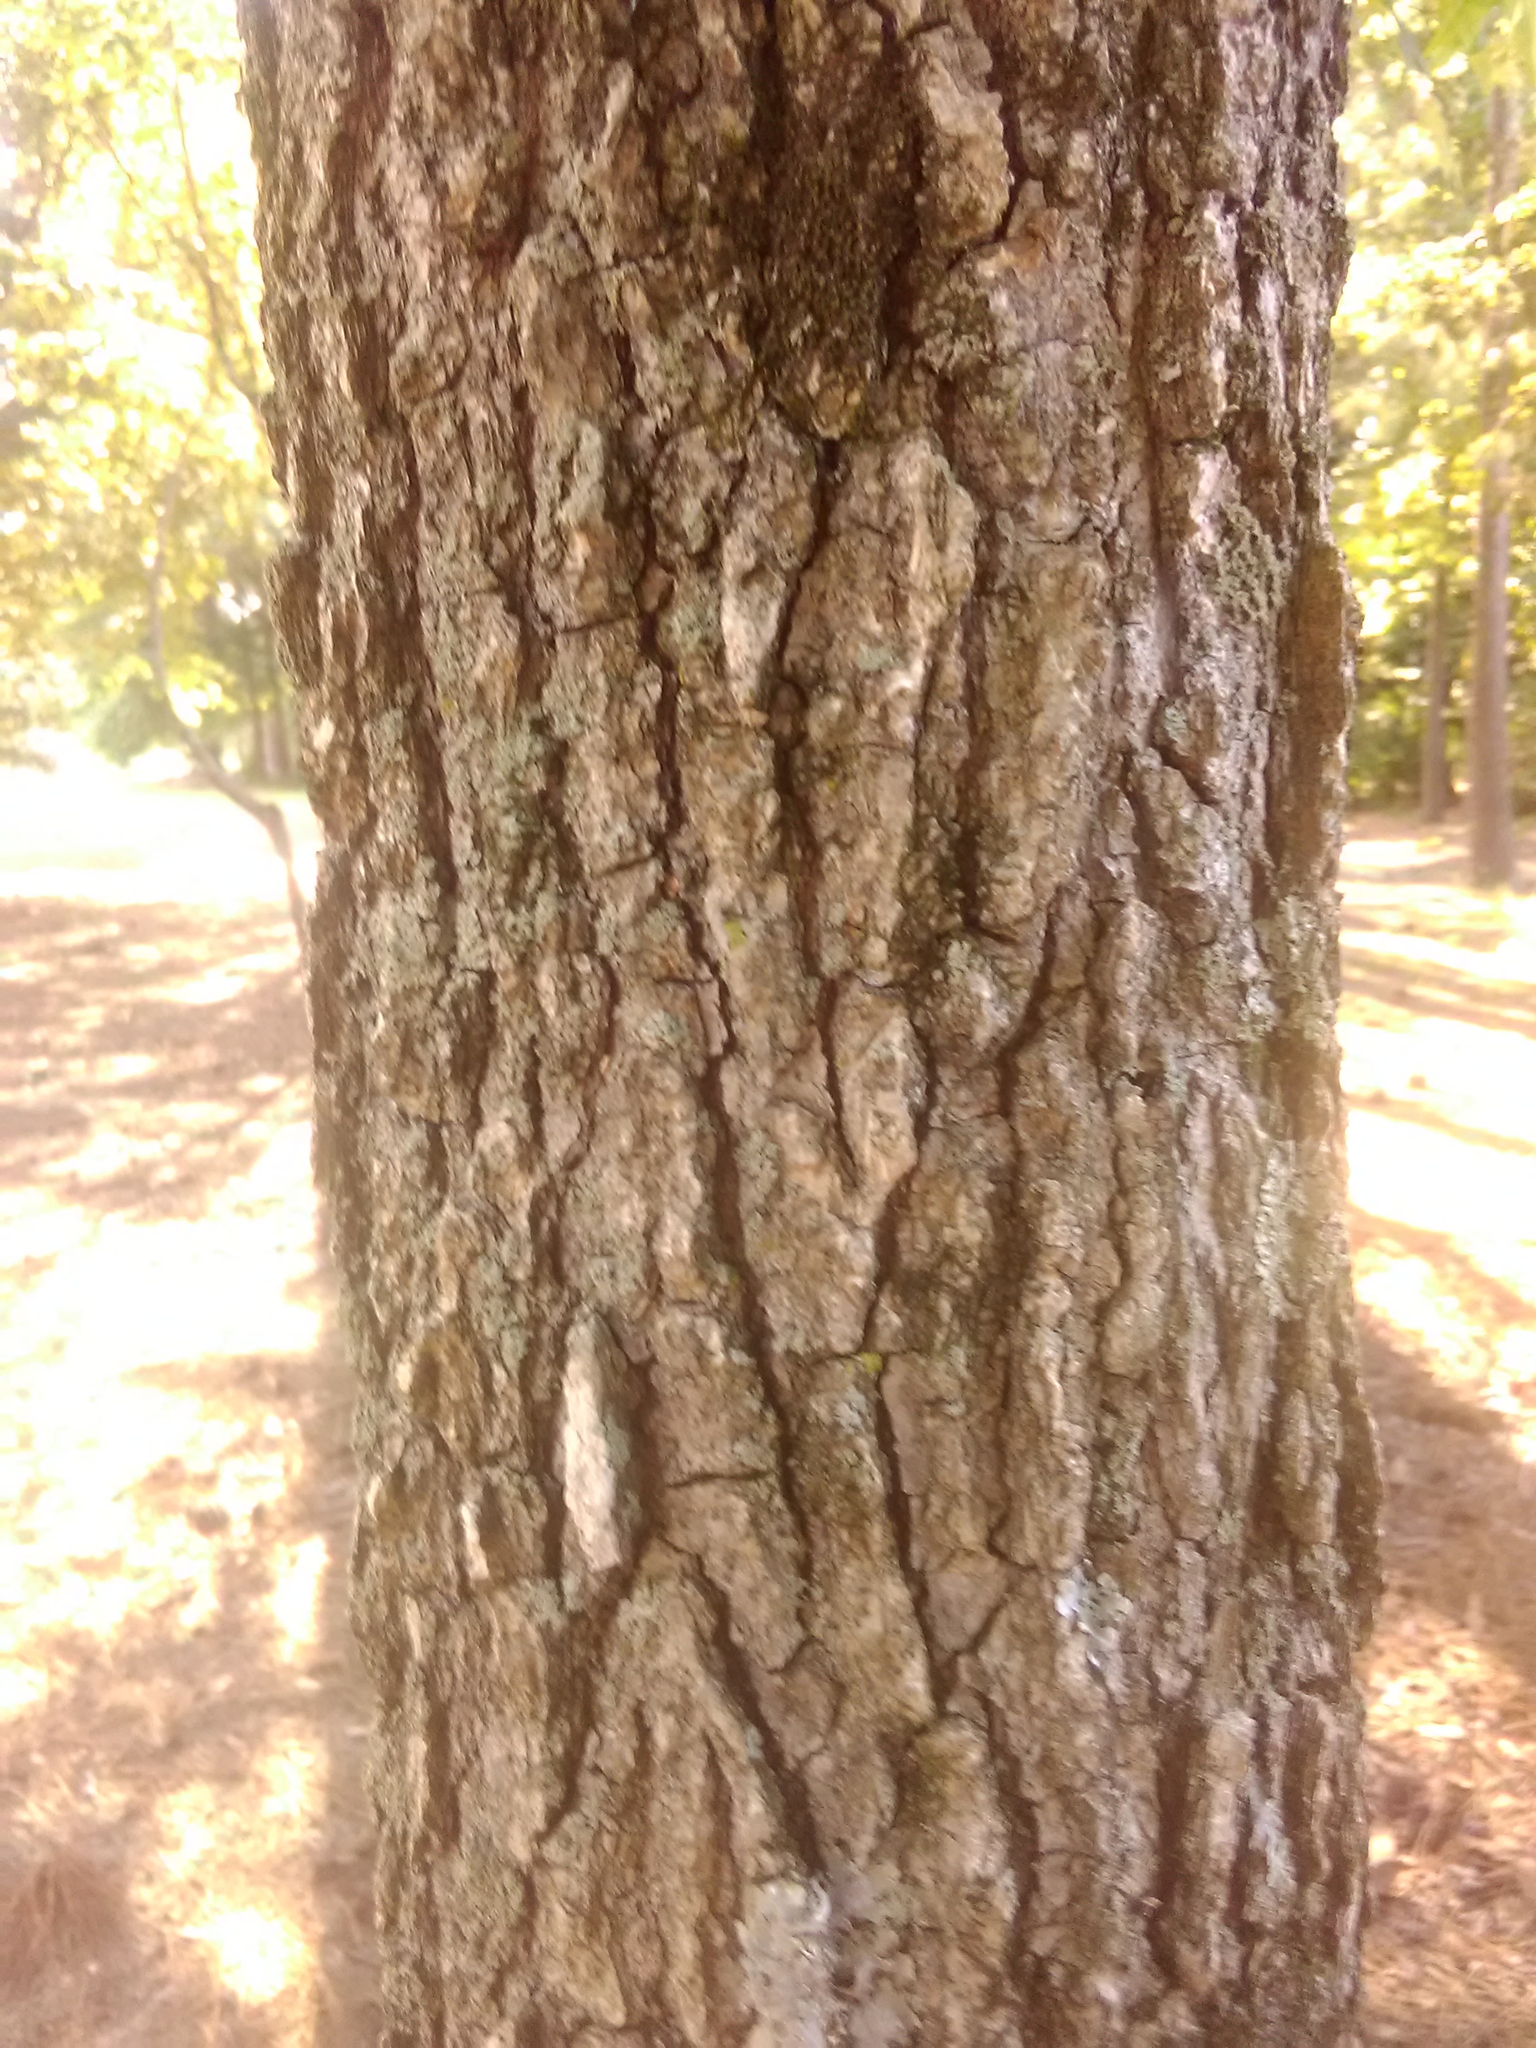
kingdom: Plantae
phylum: Tracheophyta
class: Magnoliopsida
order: Saxifragales
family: Altingiaceae
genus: Liquidambar
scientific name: Liquidambar styraciflua
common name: Sweet gum
